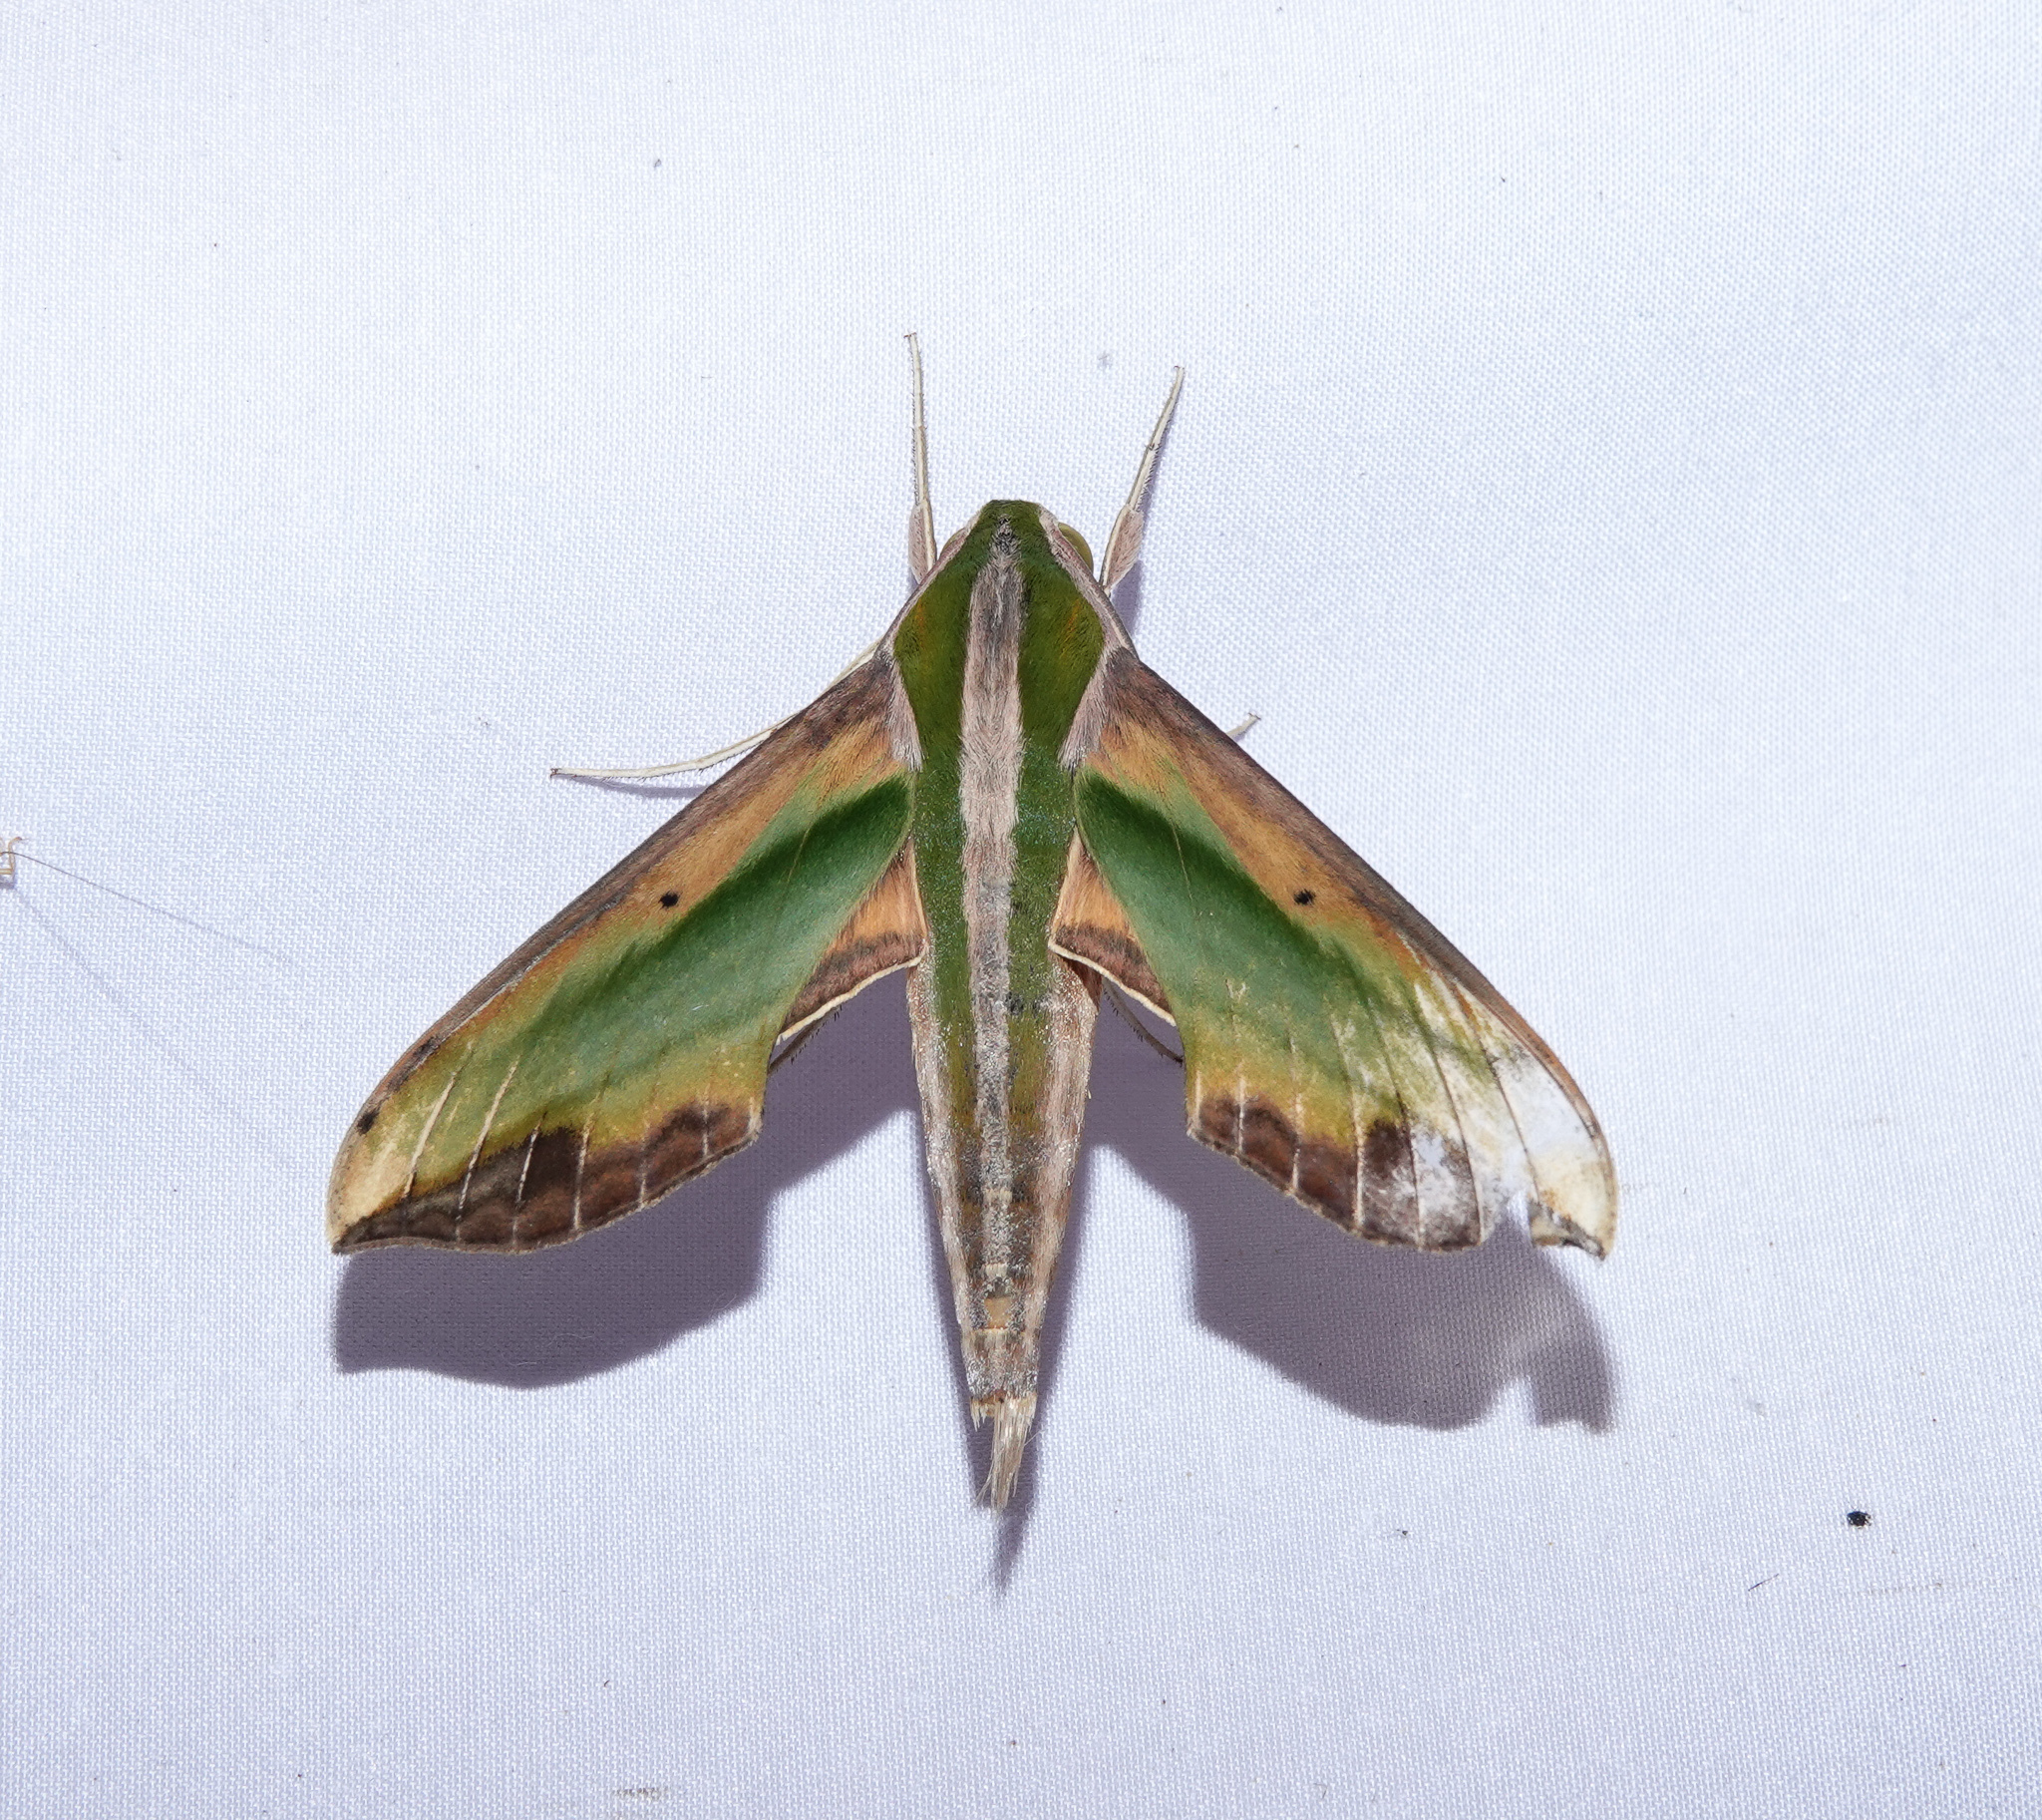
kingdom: Animalia
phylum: Arthropoda
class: Insecta
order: Lepidoptera
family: Sphingidae
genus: Pergesa
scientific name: Pergesa acteus
